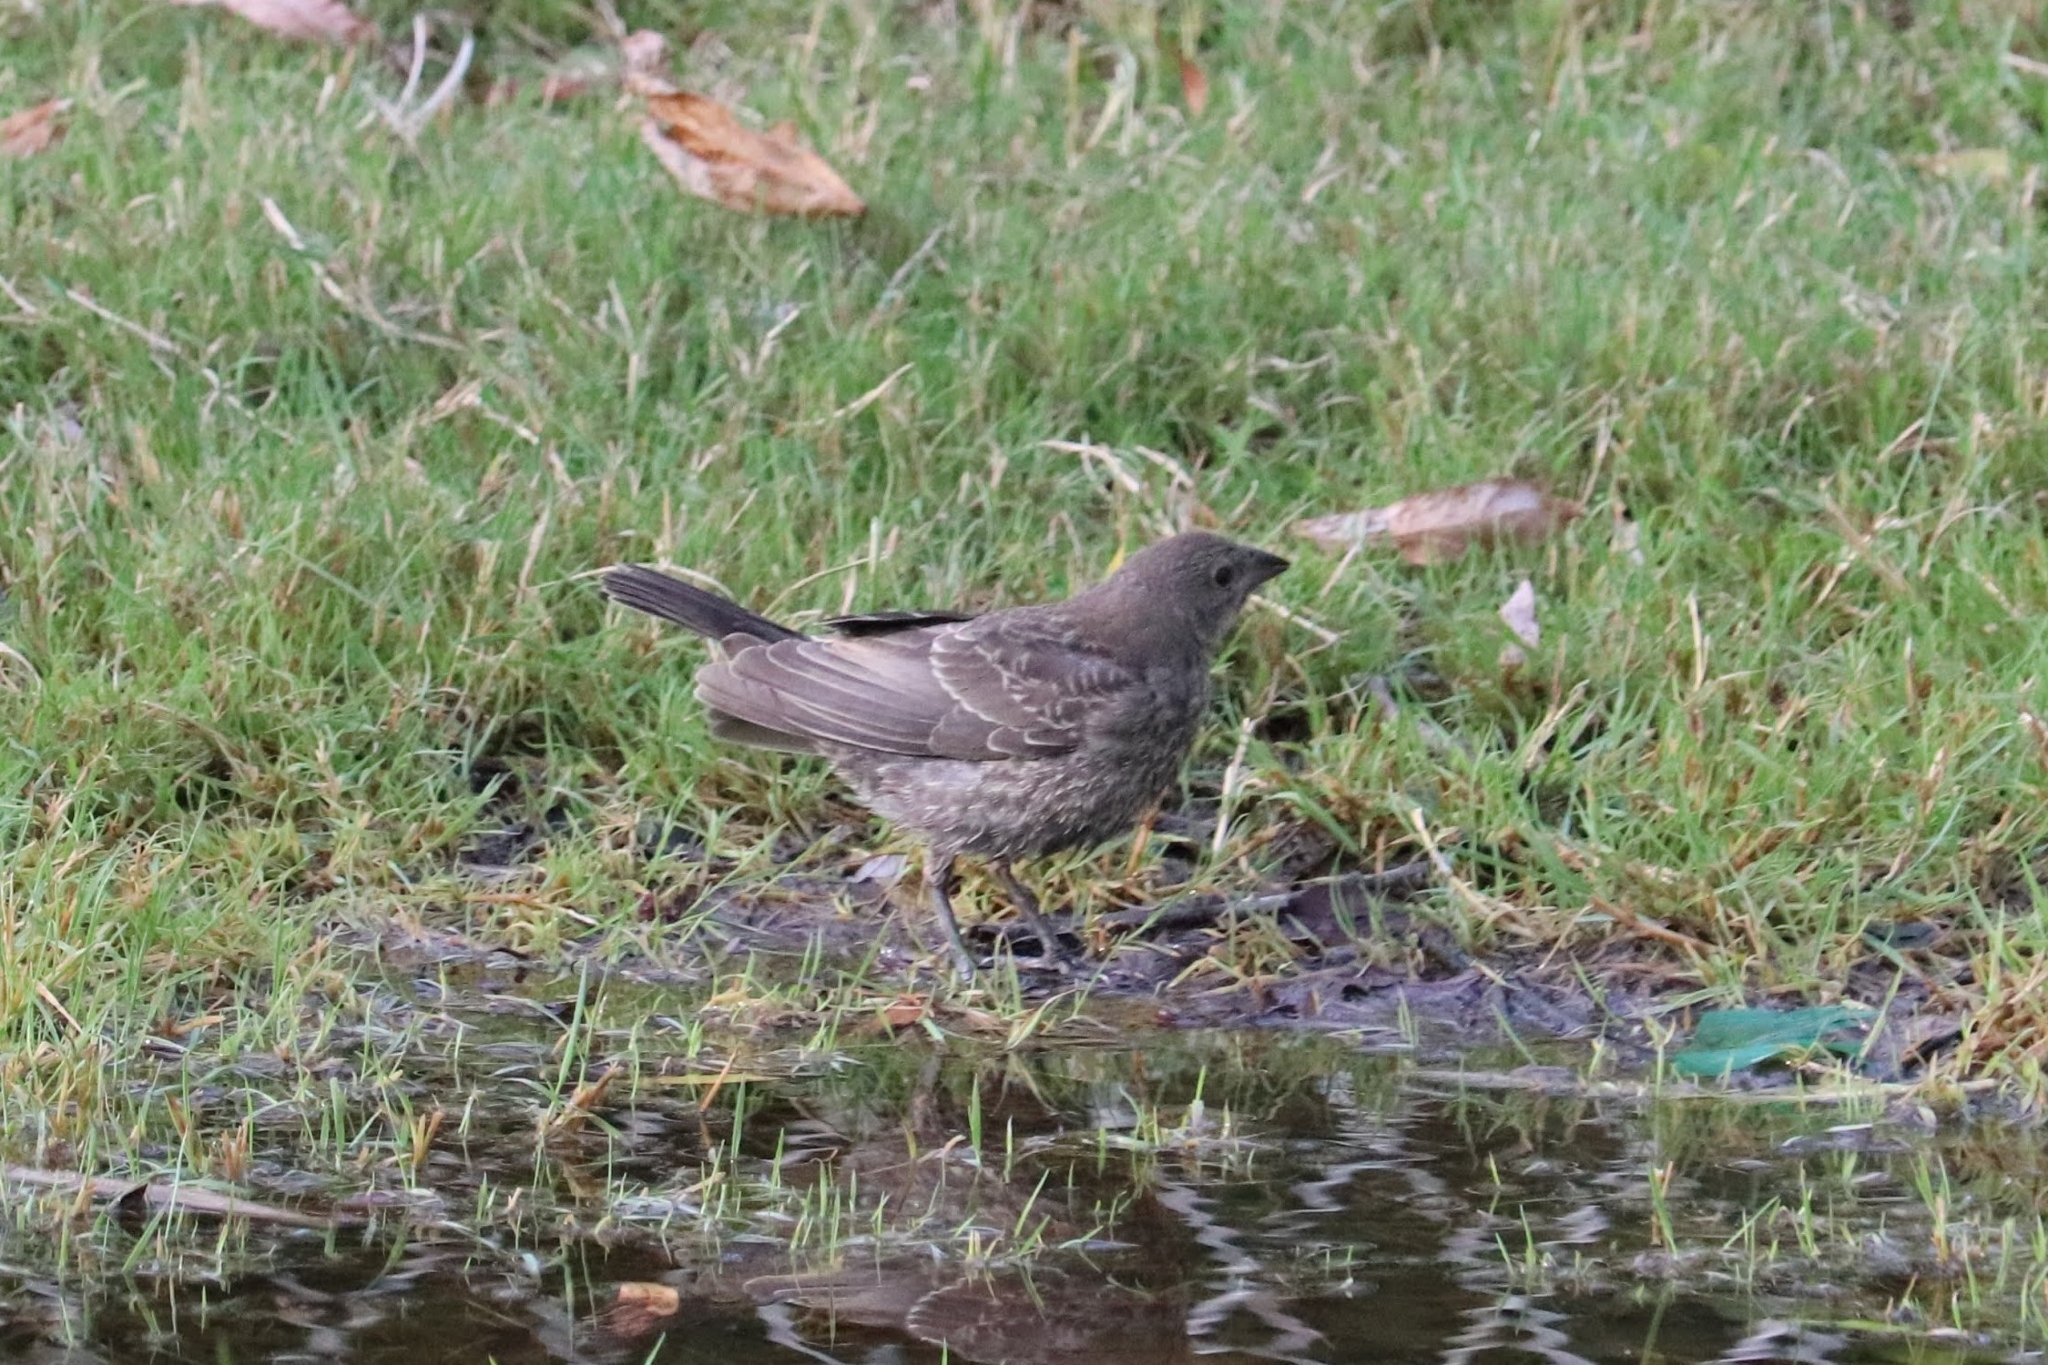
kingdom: Animalia
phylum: Chordata
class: Aves
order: Passeriformes
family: Icteridae
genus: Molothrus
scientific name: Molothrus ater
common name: Brown-headed cowbird
